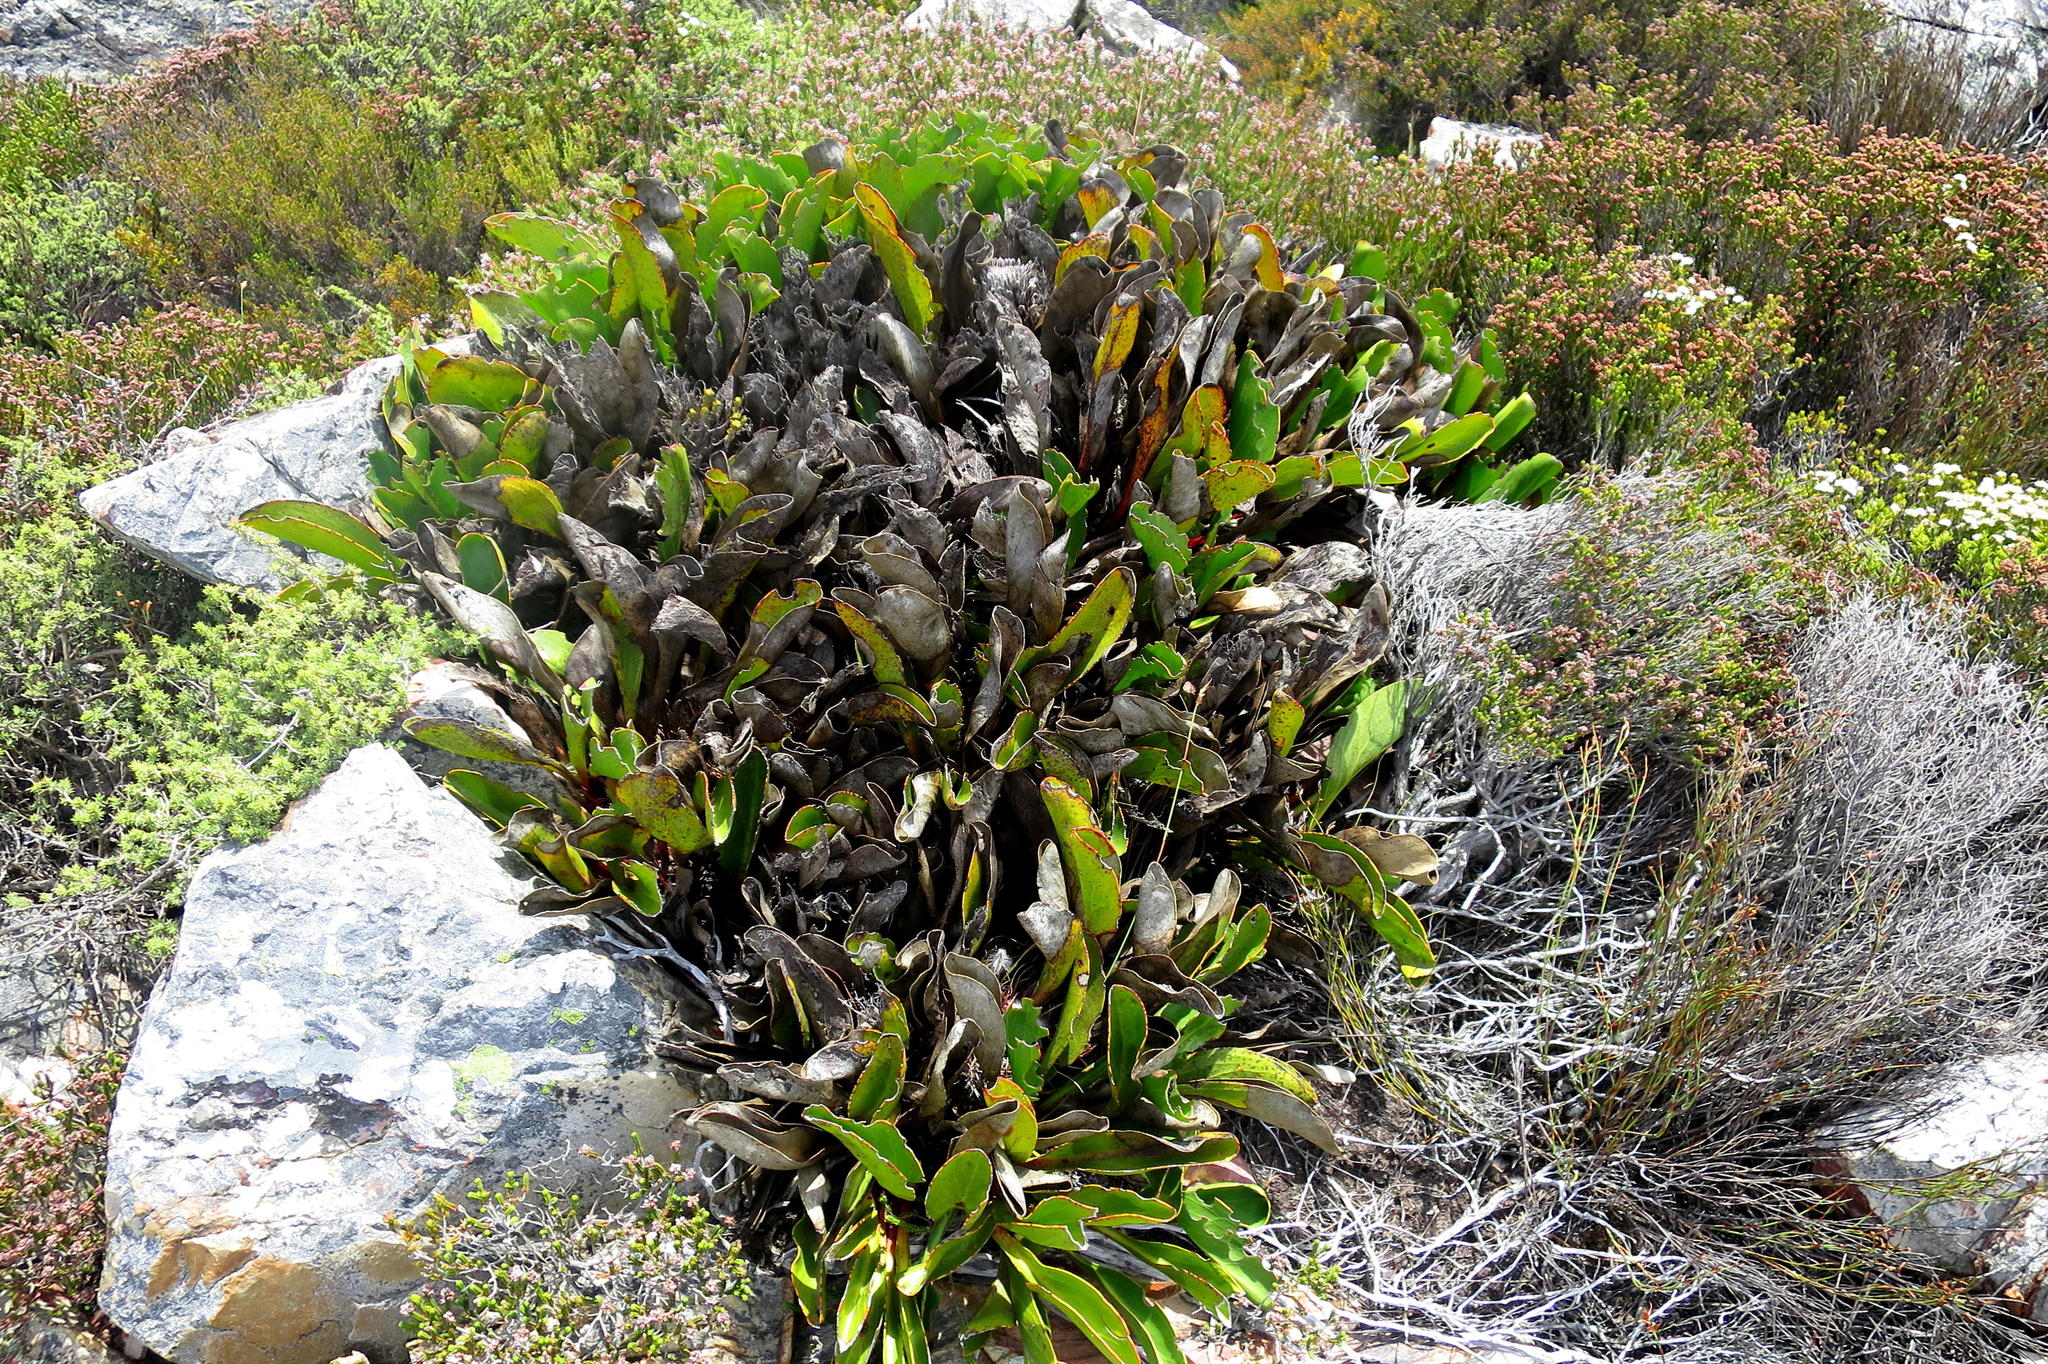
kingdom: Plantae
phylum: Tracheophyta
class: Magnoliopsida
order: Proteales
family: Proteaceae
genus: Protea
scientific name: Protea pruinosa
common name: Frosted sugarbush
